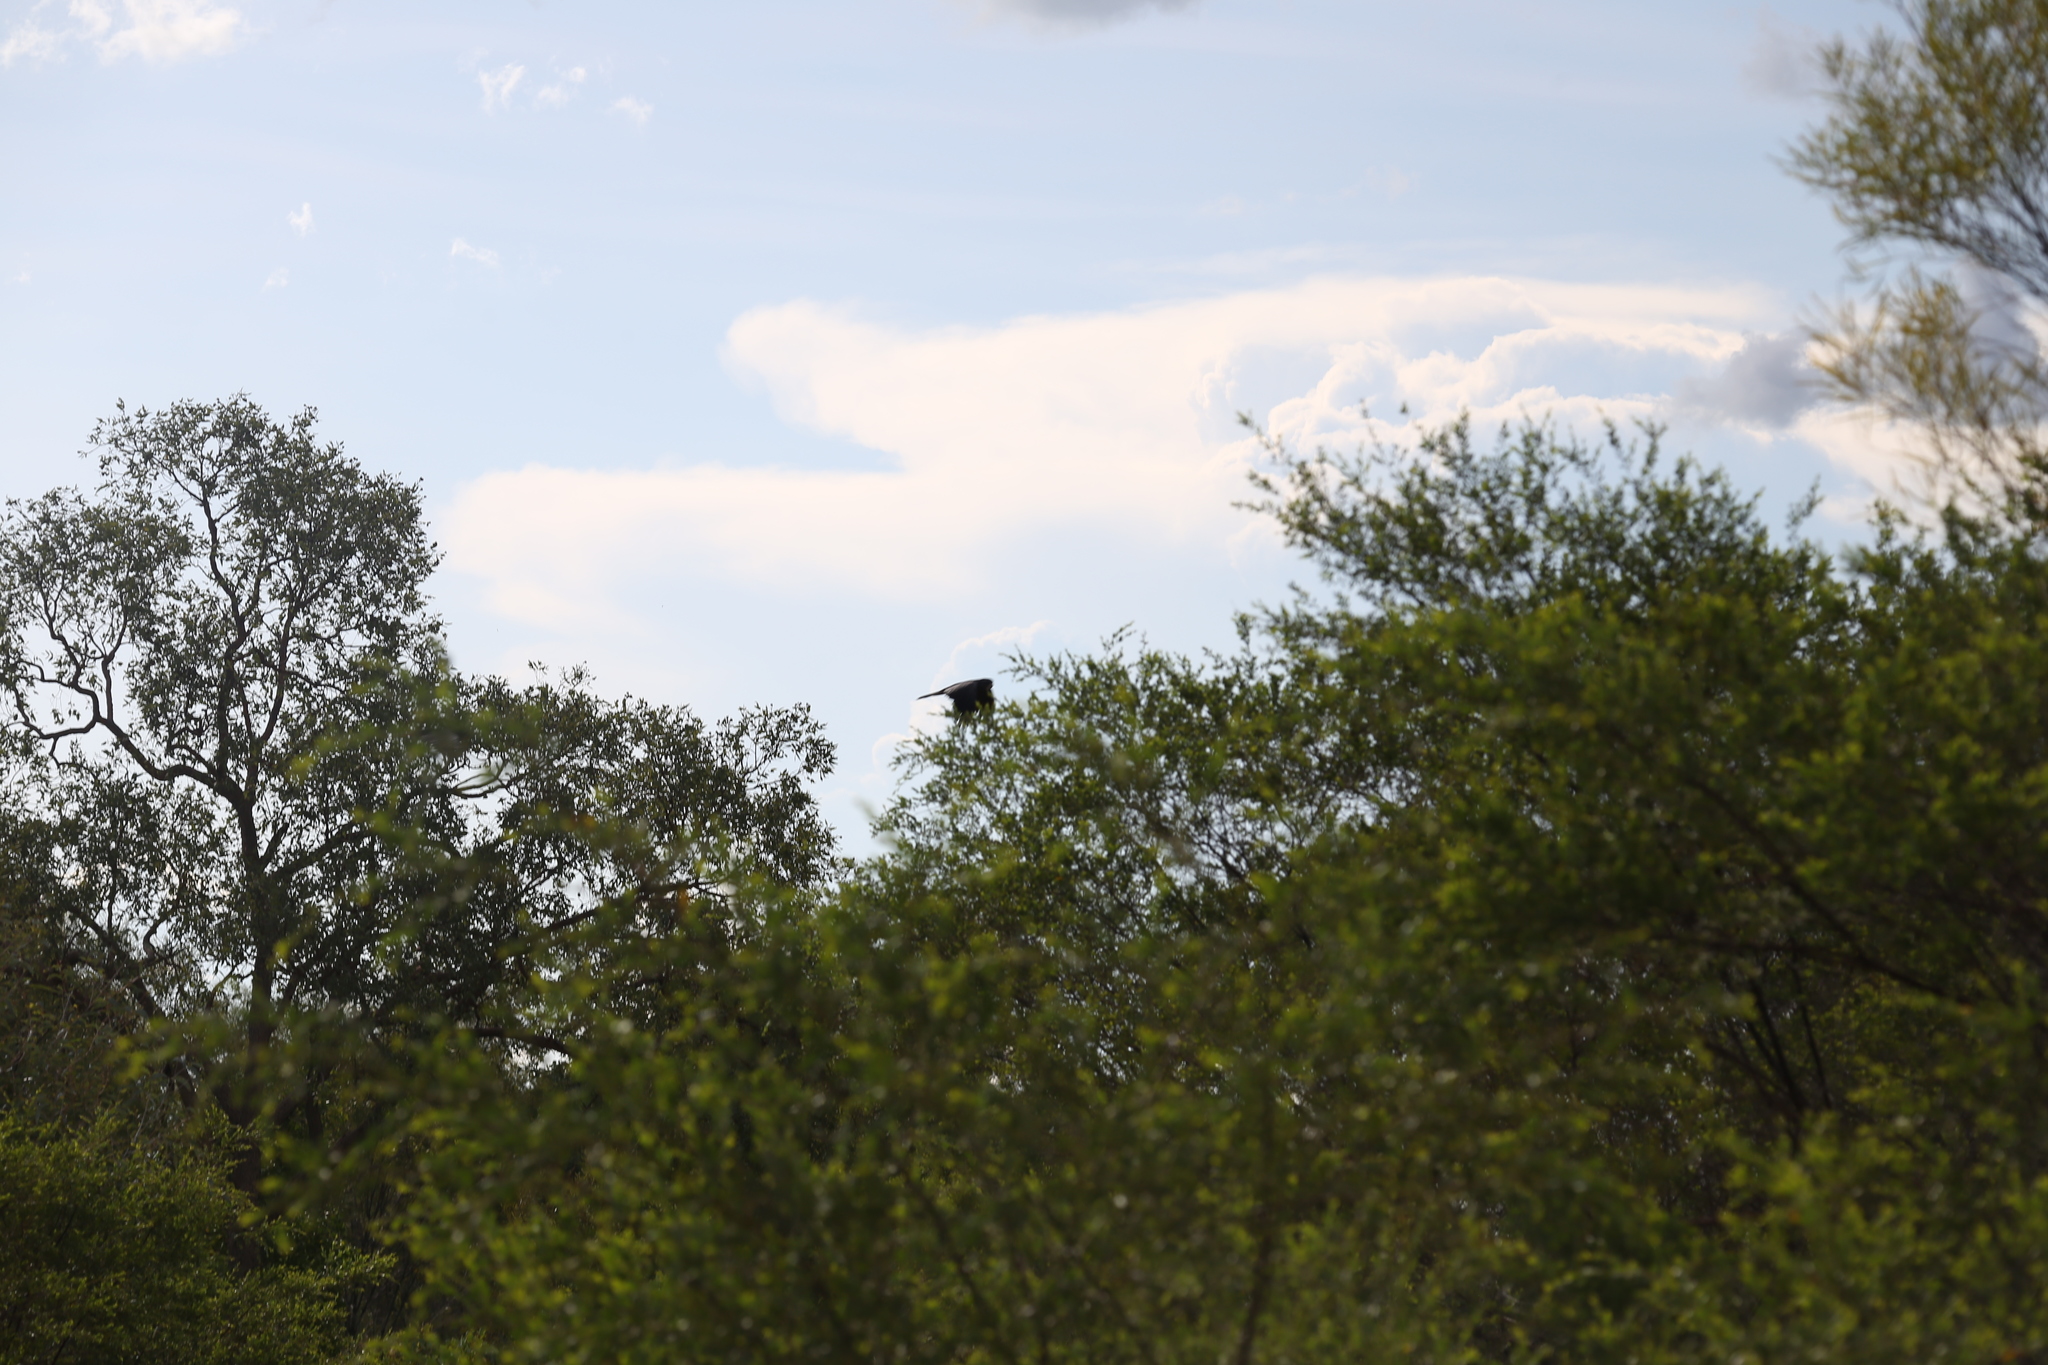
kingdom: Animalia
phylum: Chordata
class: Aves
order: Psittaciformes
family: Psittacidae
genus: Calyptorhynchus
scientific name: Calyptorhynchus banksii
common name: Red-tailed black cockatoo
